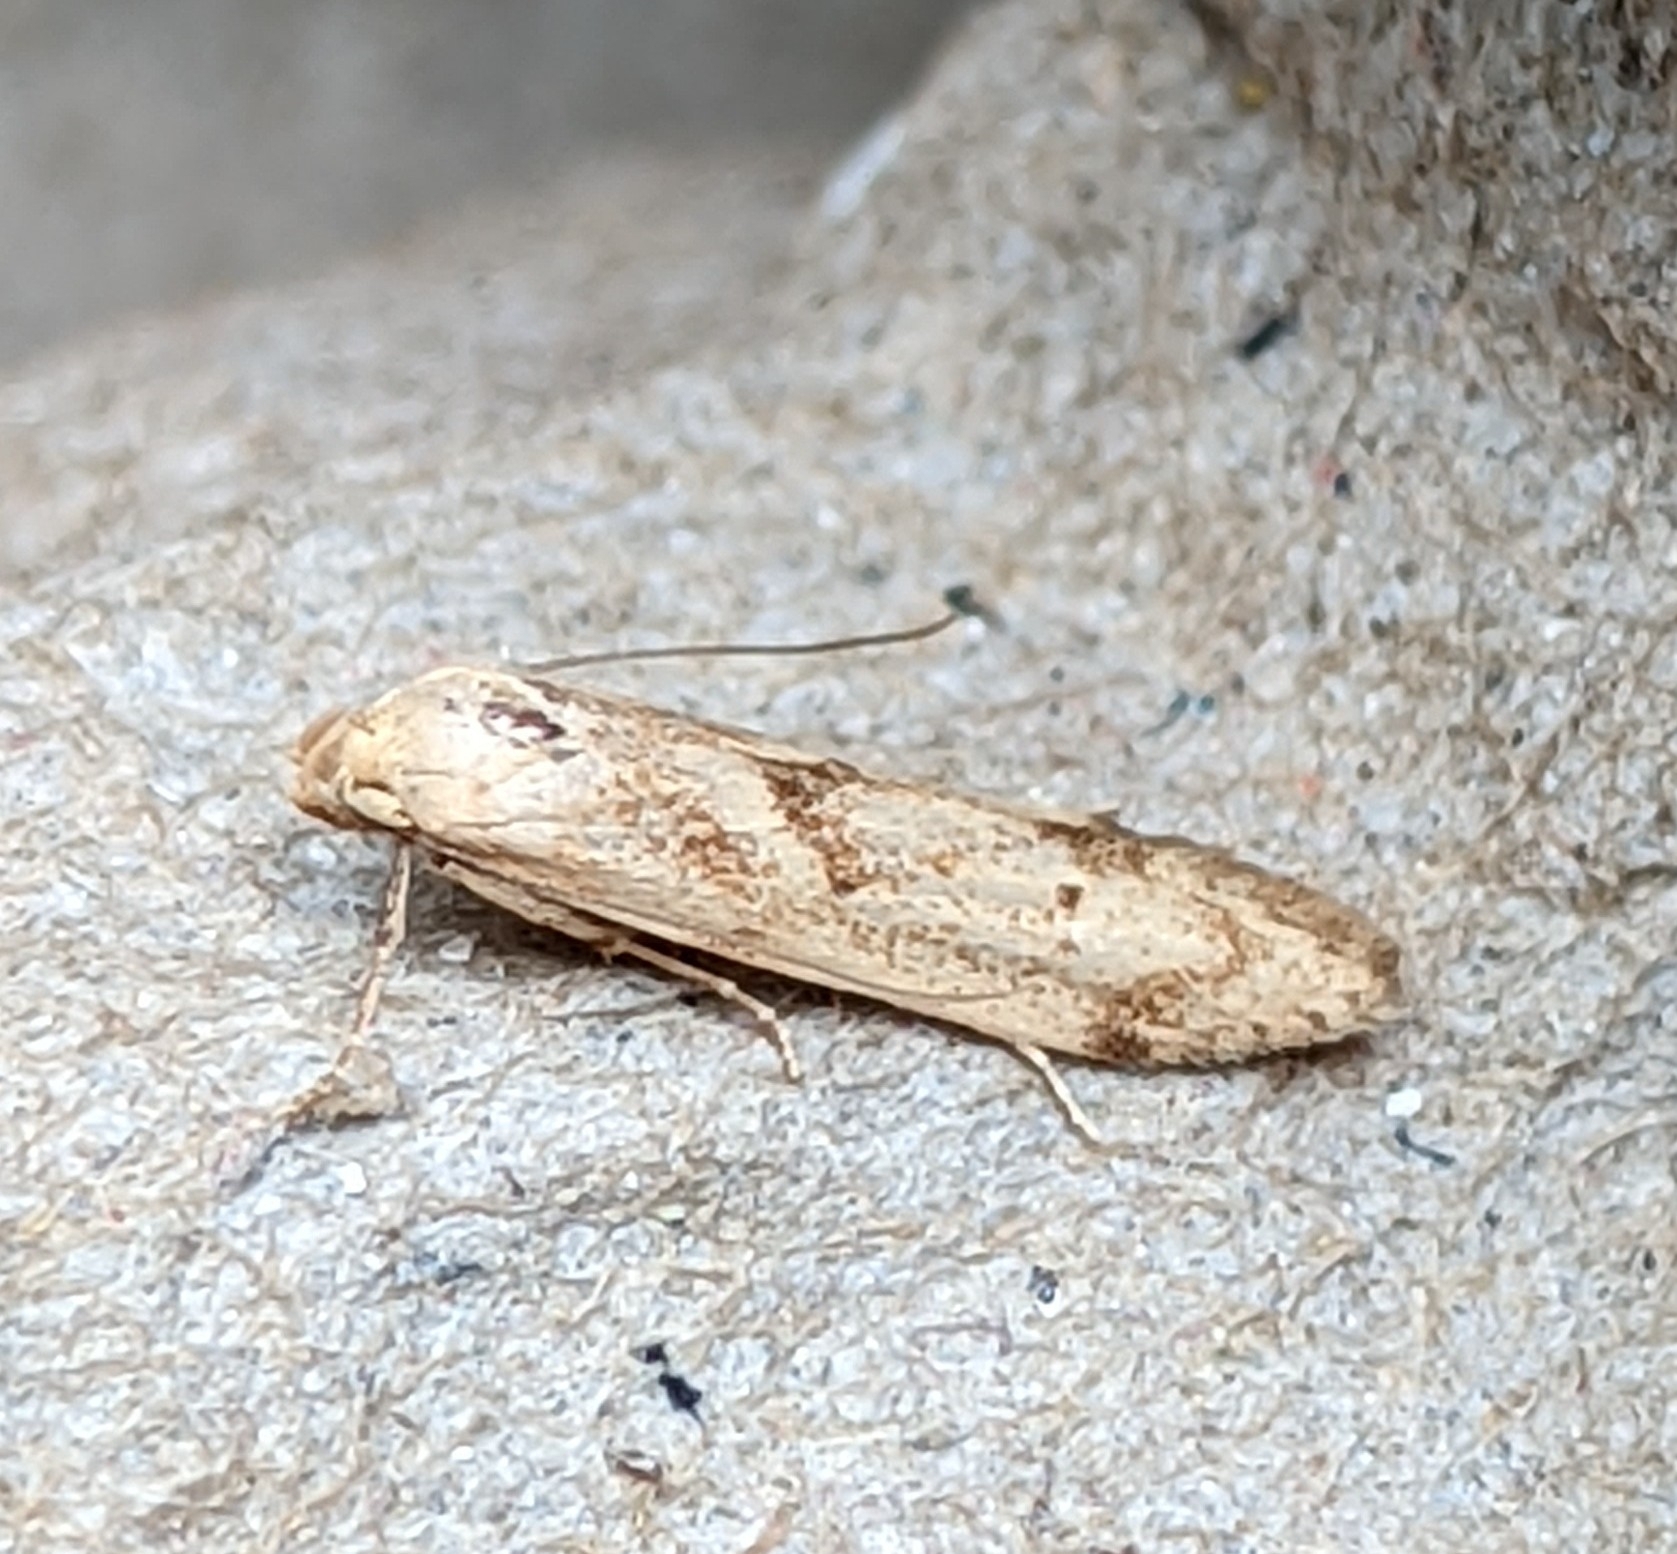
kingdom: Animalia
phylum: Arthropoda
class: Insecta
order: Lepidoptera
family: Blastobasidae
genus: Blastobasis
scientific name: Blastobasis adustella
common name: Dingy dowd
